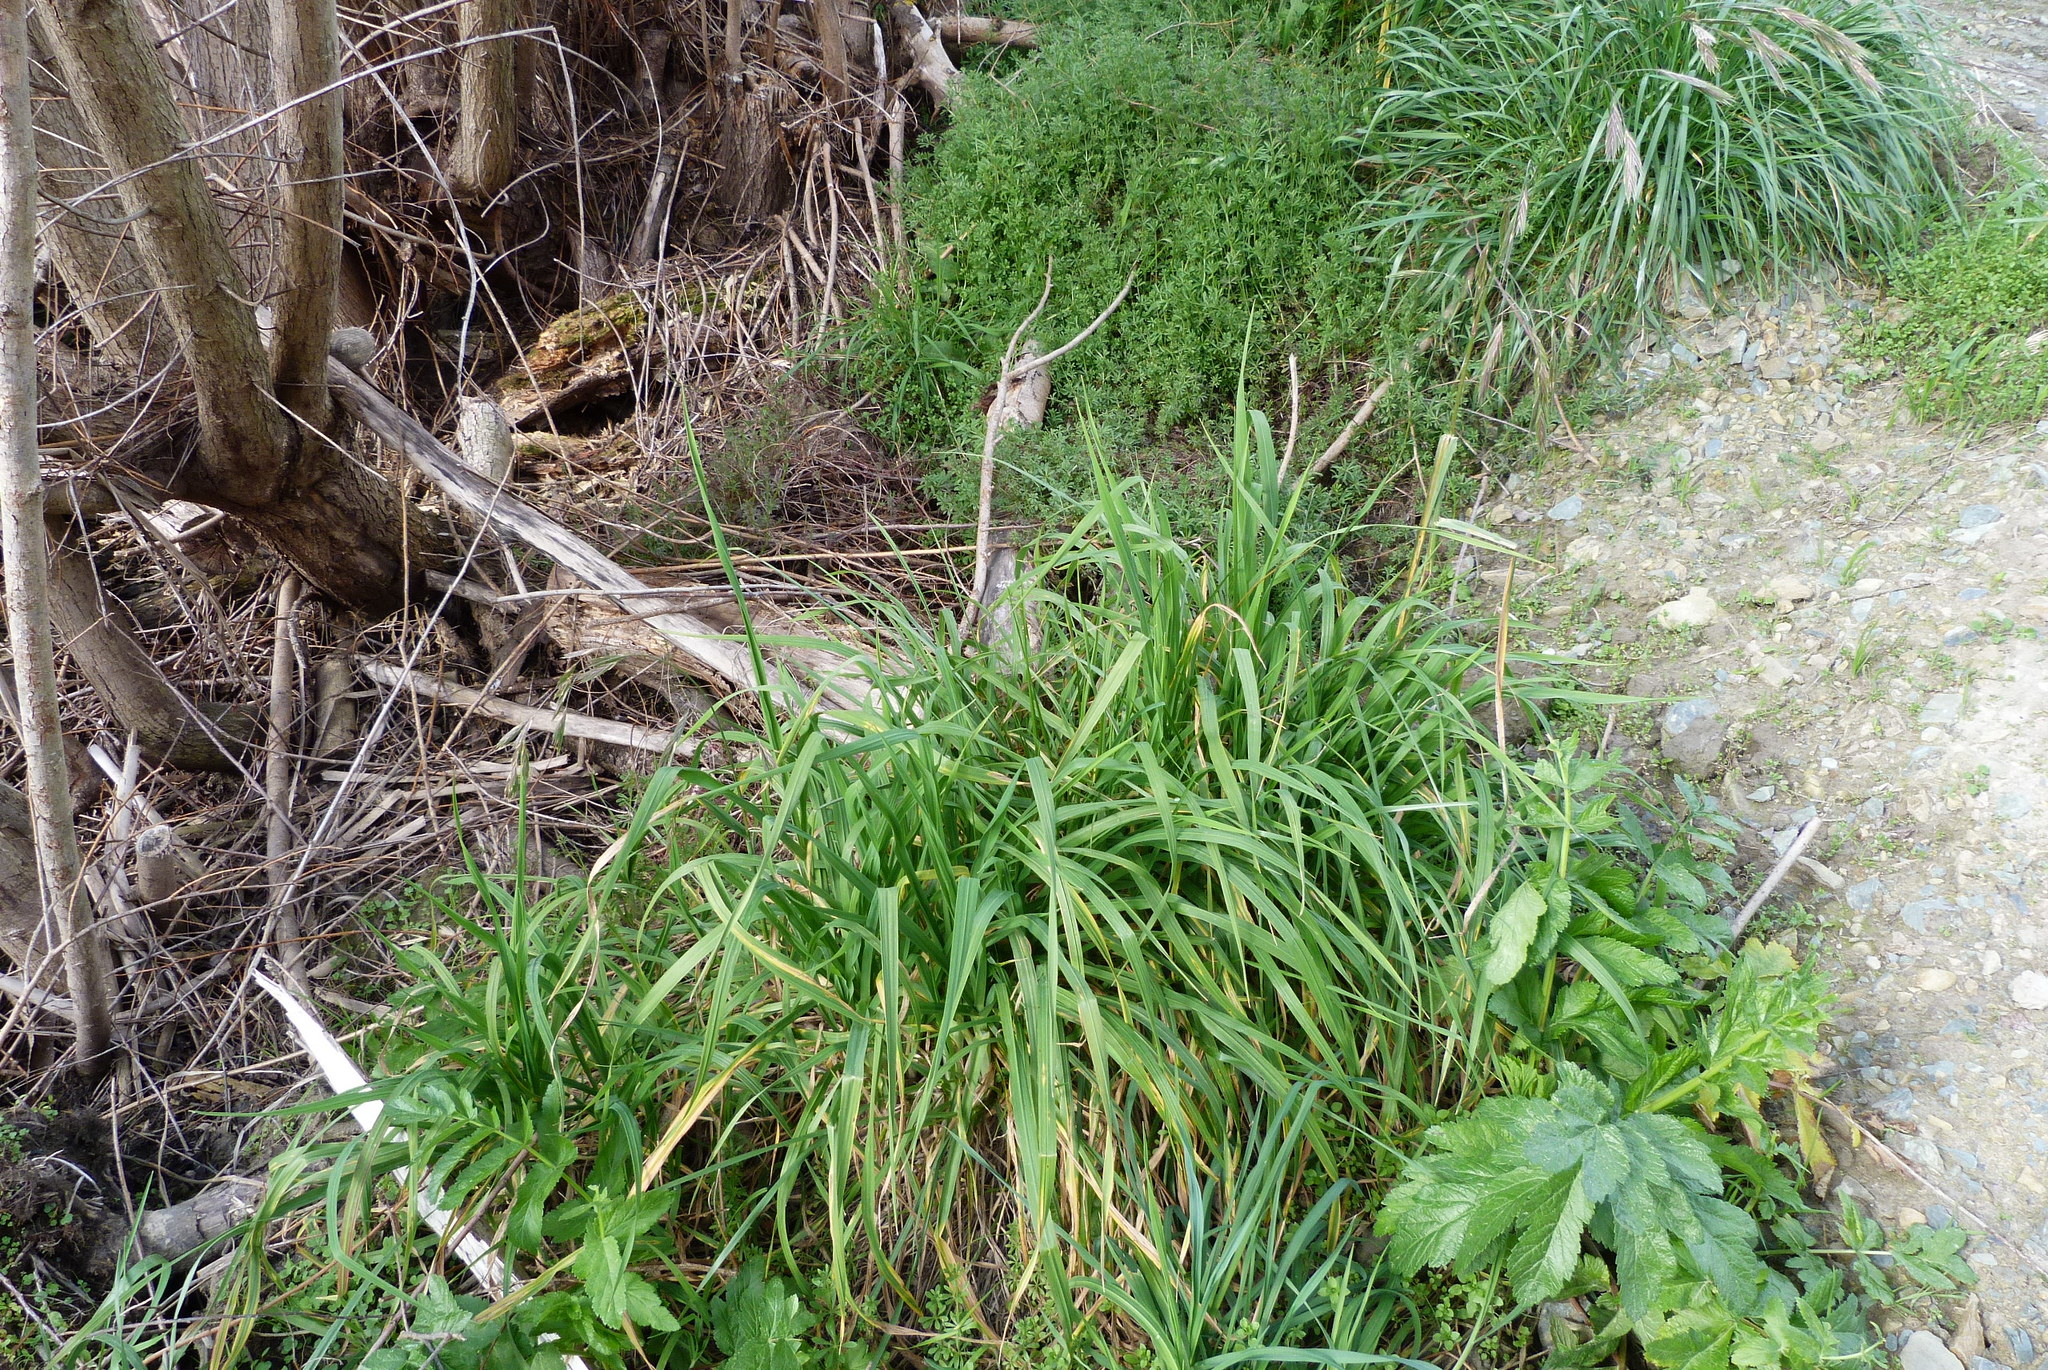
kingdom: Plantae
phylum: Tracheophyta
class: Liliopsida
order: Poales
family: Poaceae
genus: Bromus
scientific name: Bromus catharticus
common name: Rescuegrass
